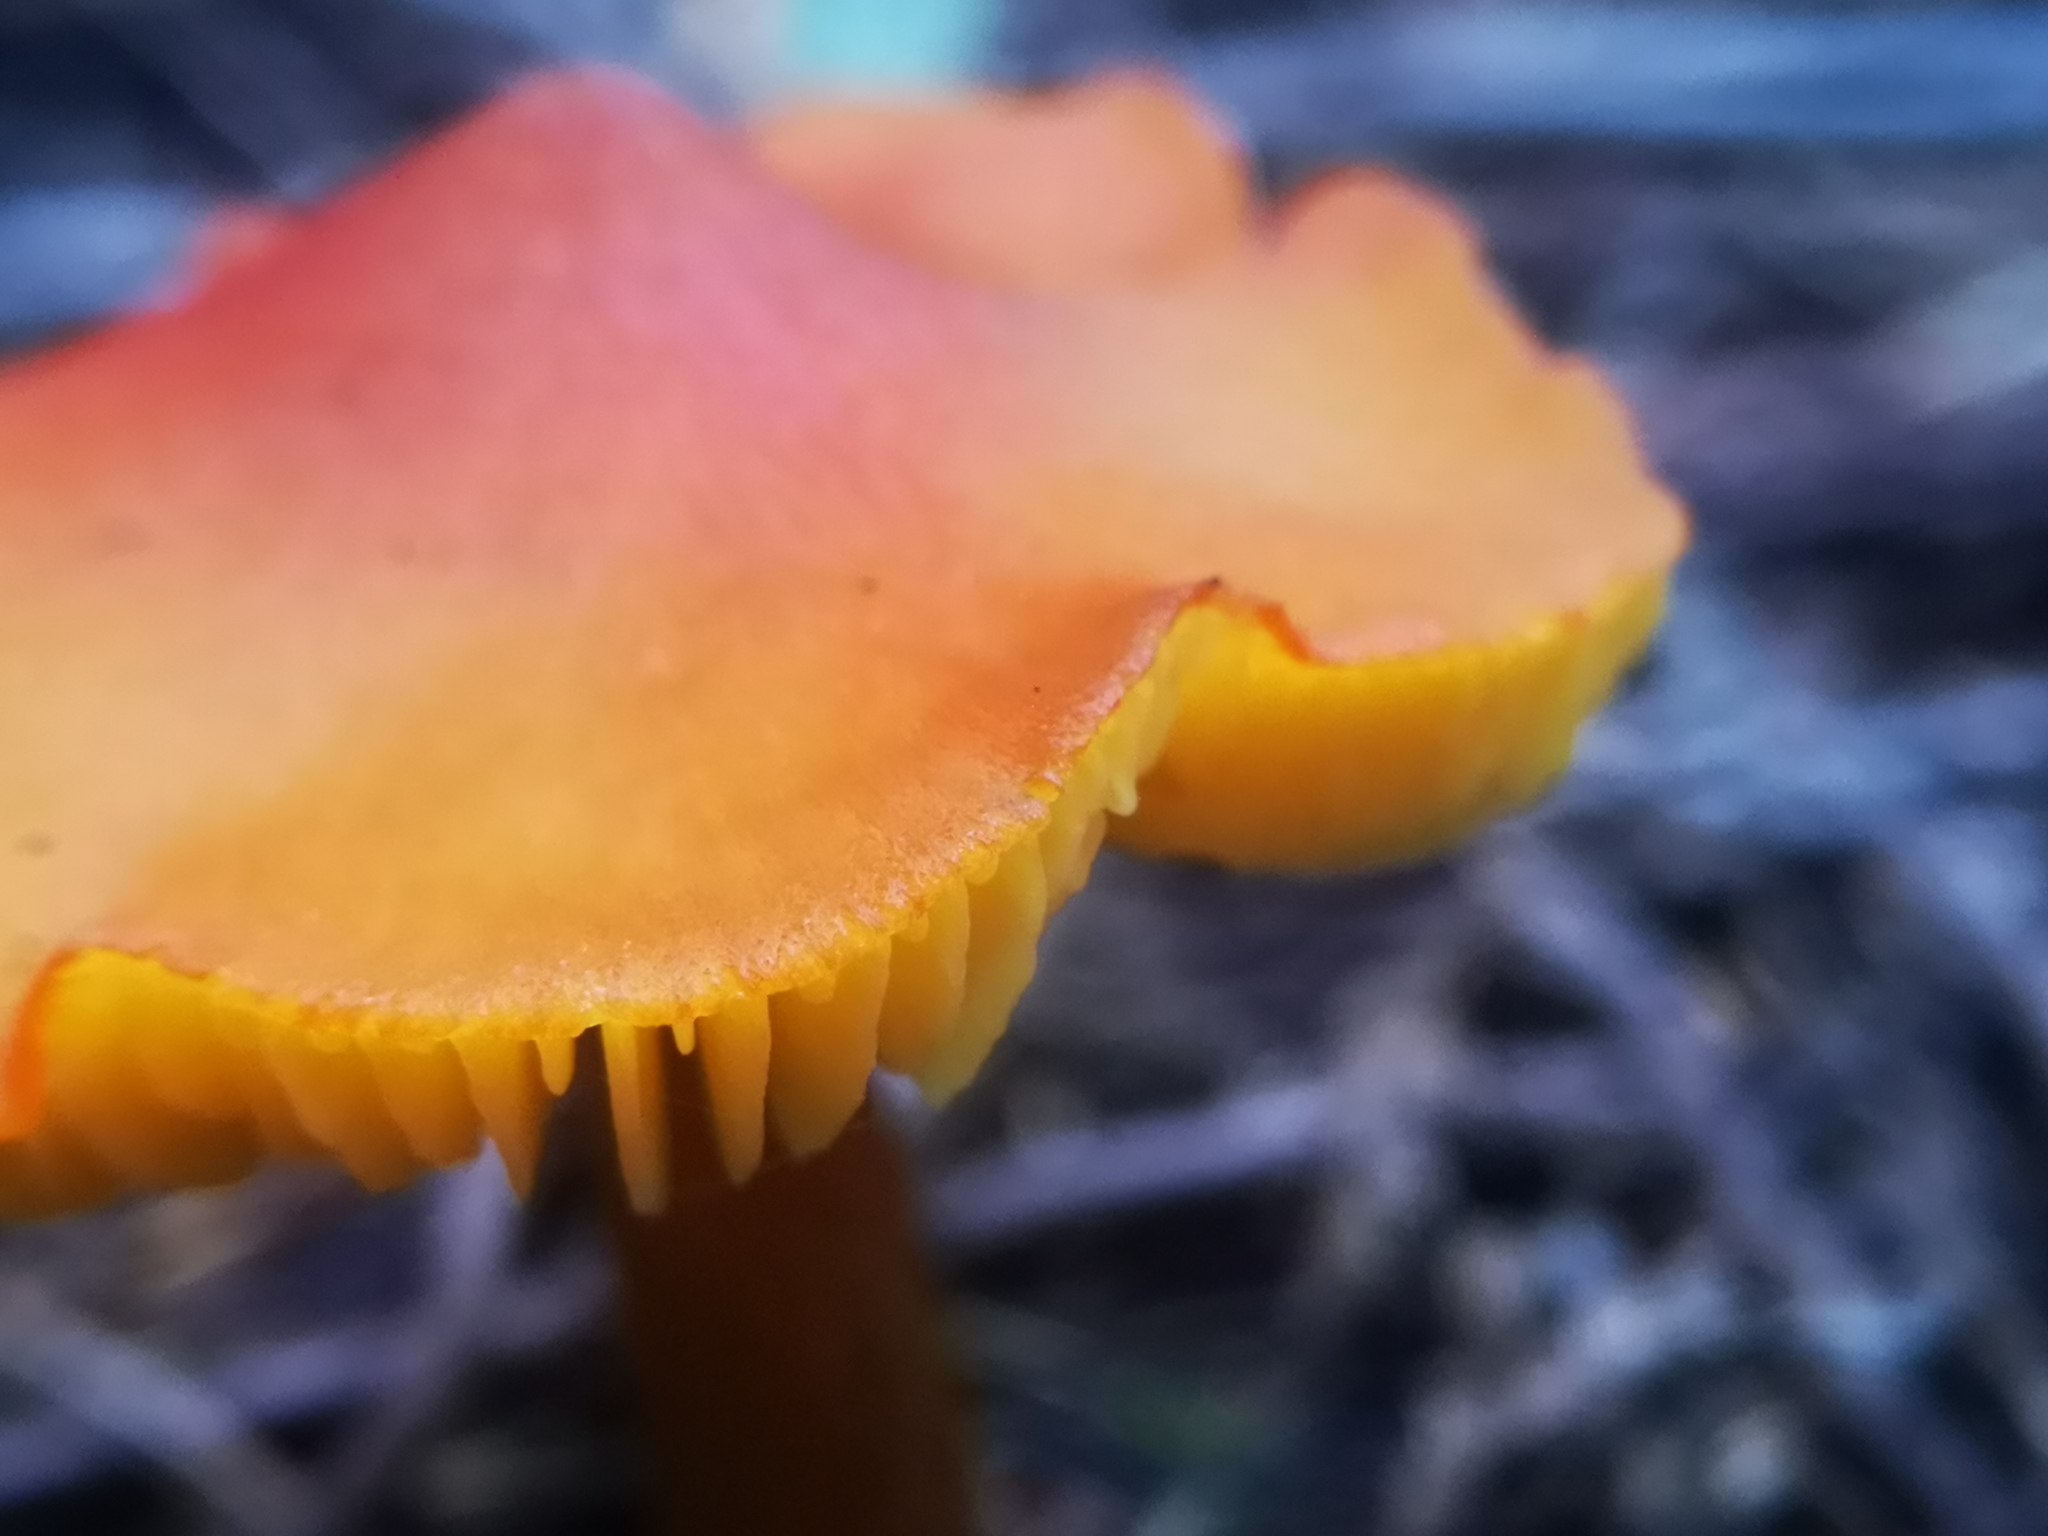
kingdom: Fungi
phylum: Basidiomycota
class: Agaricomycetes
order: Agaricales
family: Hygrophoraceae
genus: Hygrocybe
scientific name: Hygrocybe conica
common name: Blackening wax-cap
